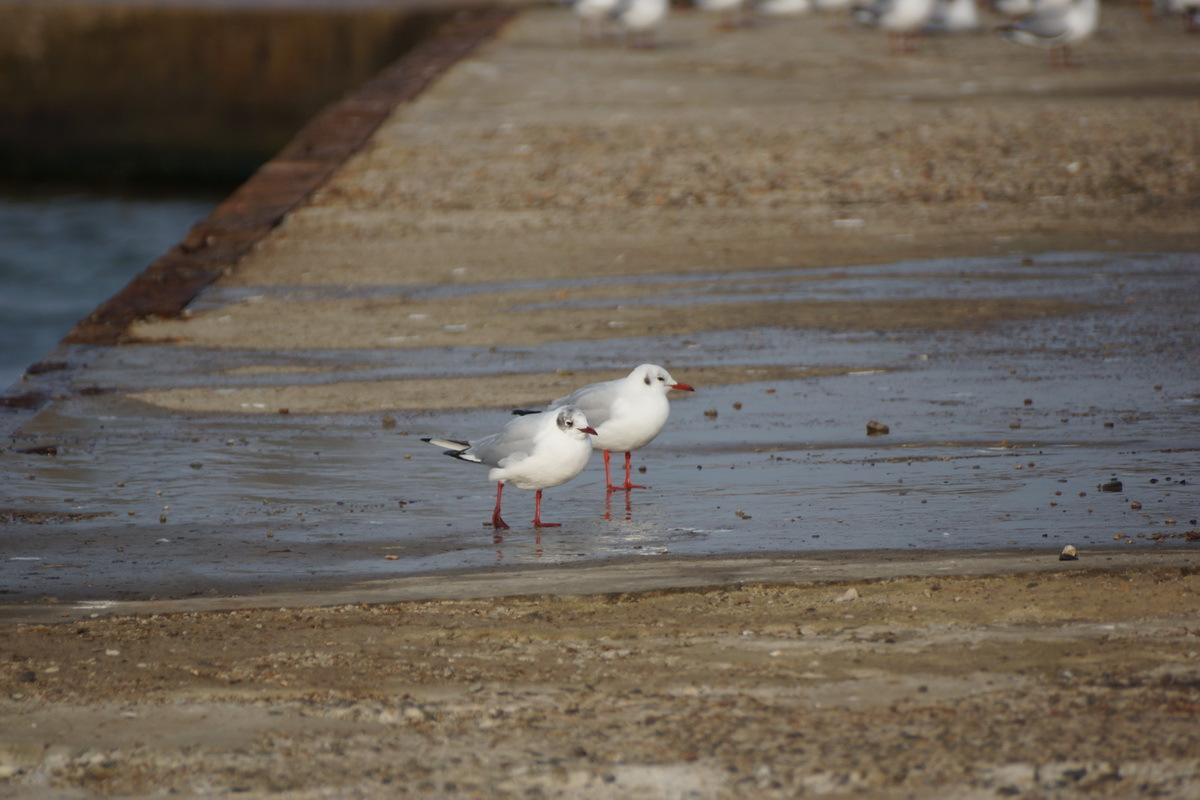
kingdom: Animalia
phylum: Chordata
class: Aves
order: Charadriiformes
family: Laridae
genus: Chroicocephalus
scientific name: Chroicocephalus ridibundus
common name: Black-headed gull
